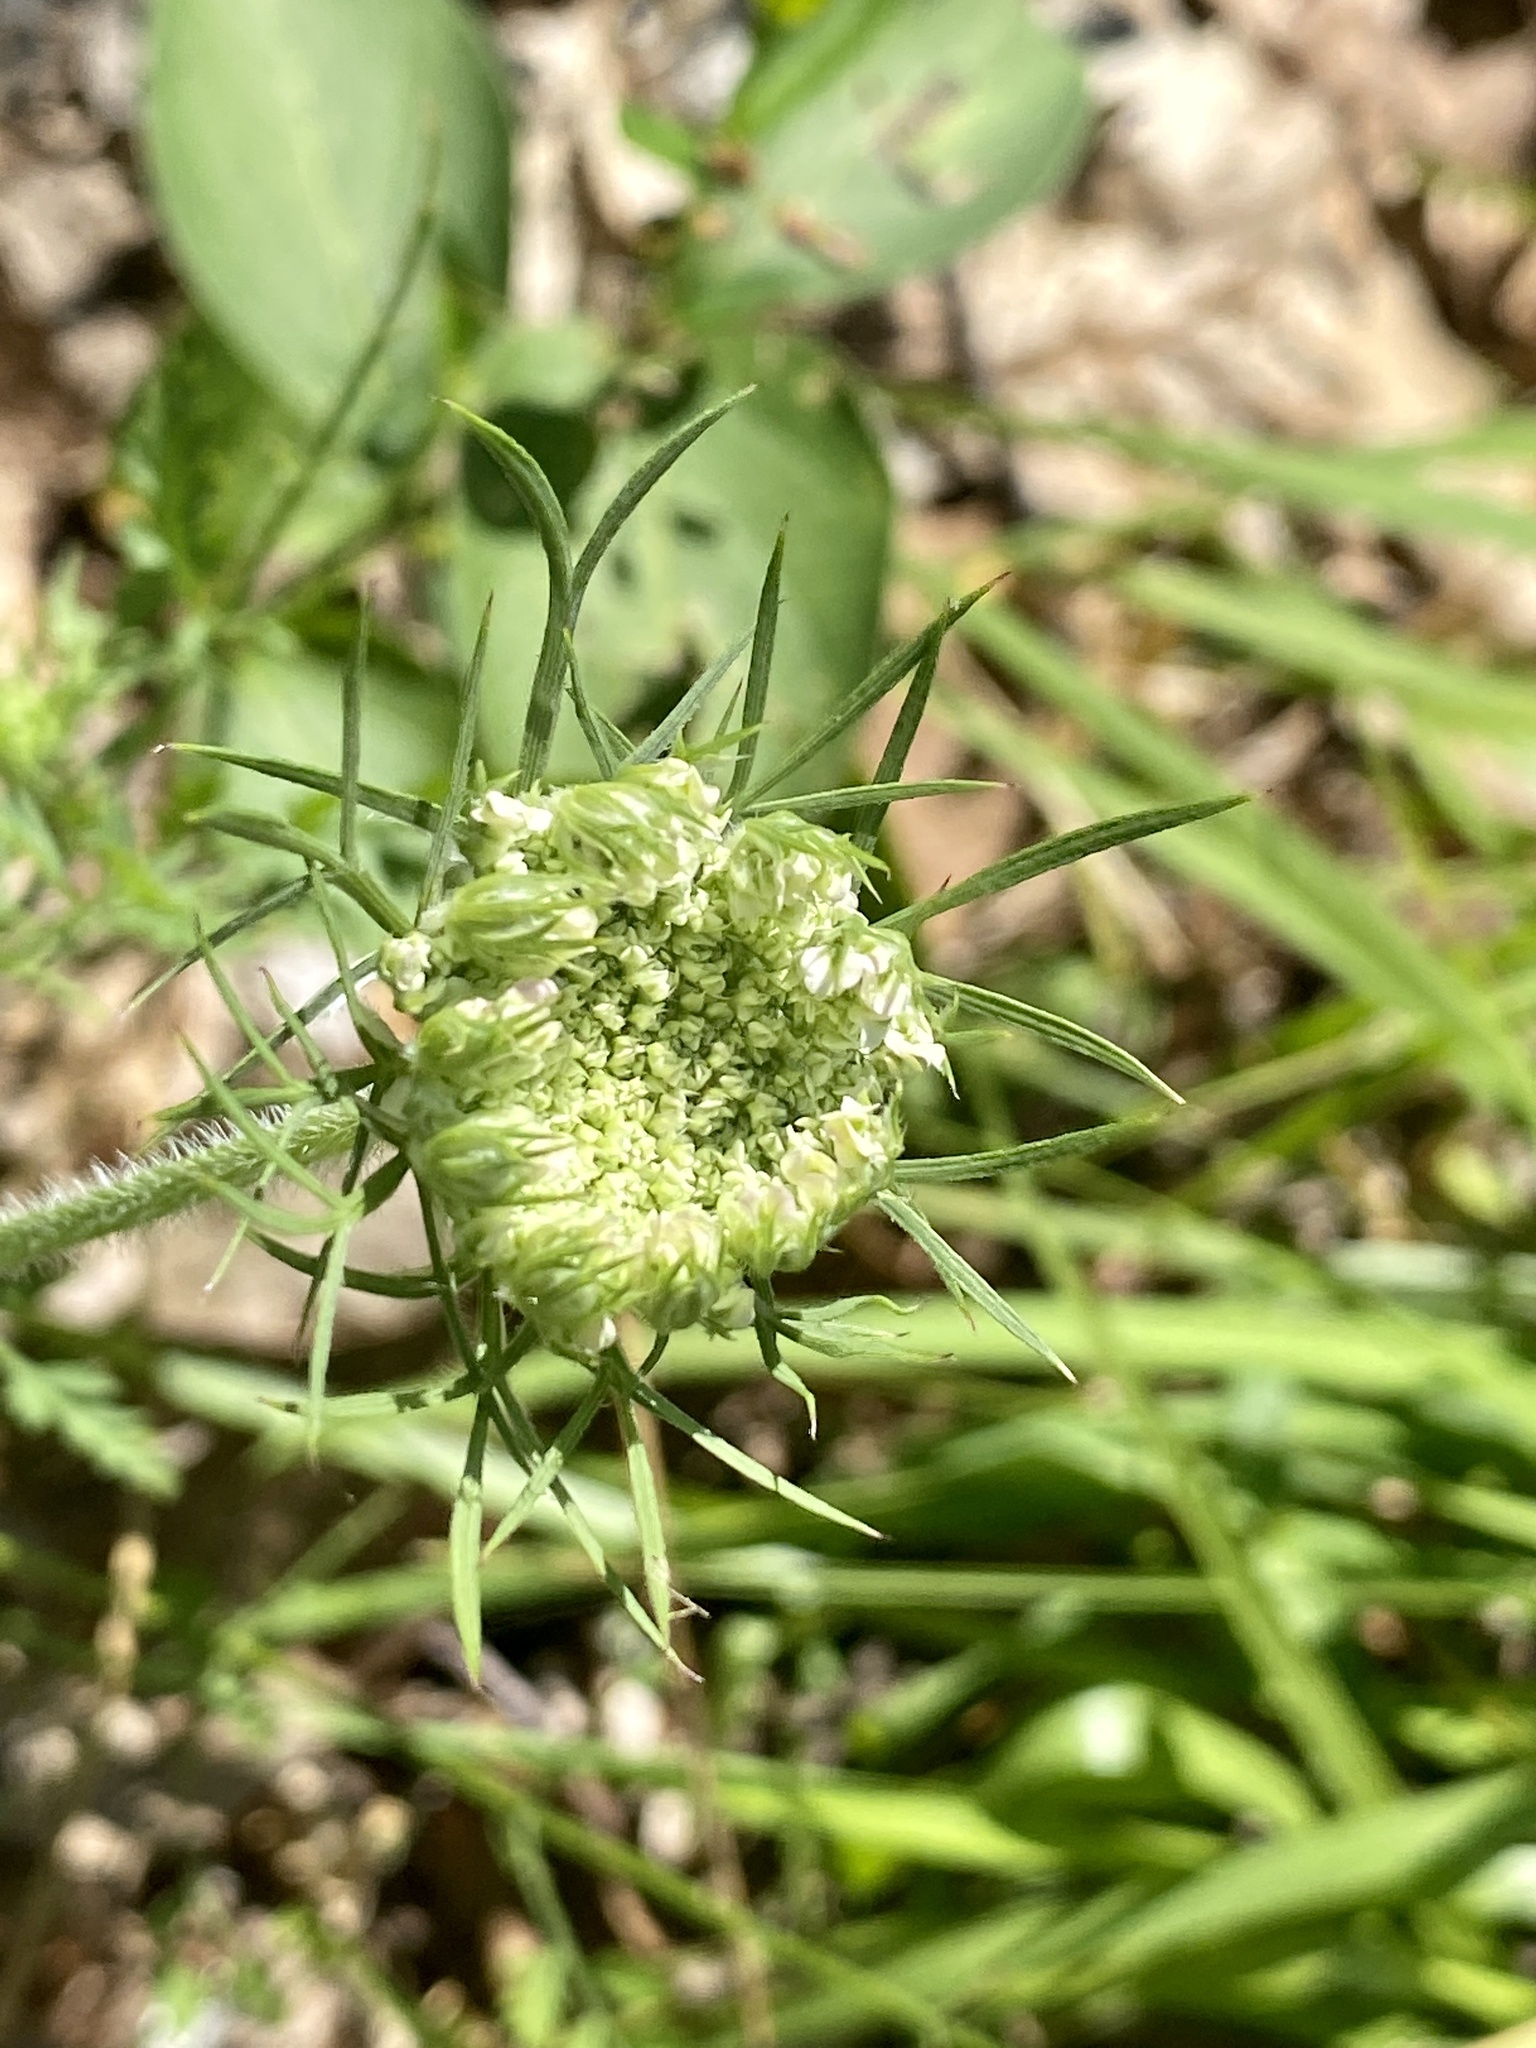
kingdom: Plantae
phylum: Tracheophyta
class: Magnoliopsida
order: Apiales
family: Apiaceae
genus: Daucus
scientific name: Daucus carota
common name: Wild carrot
